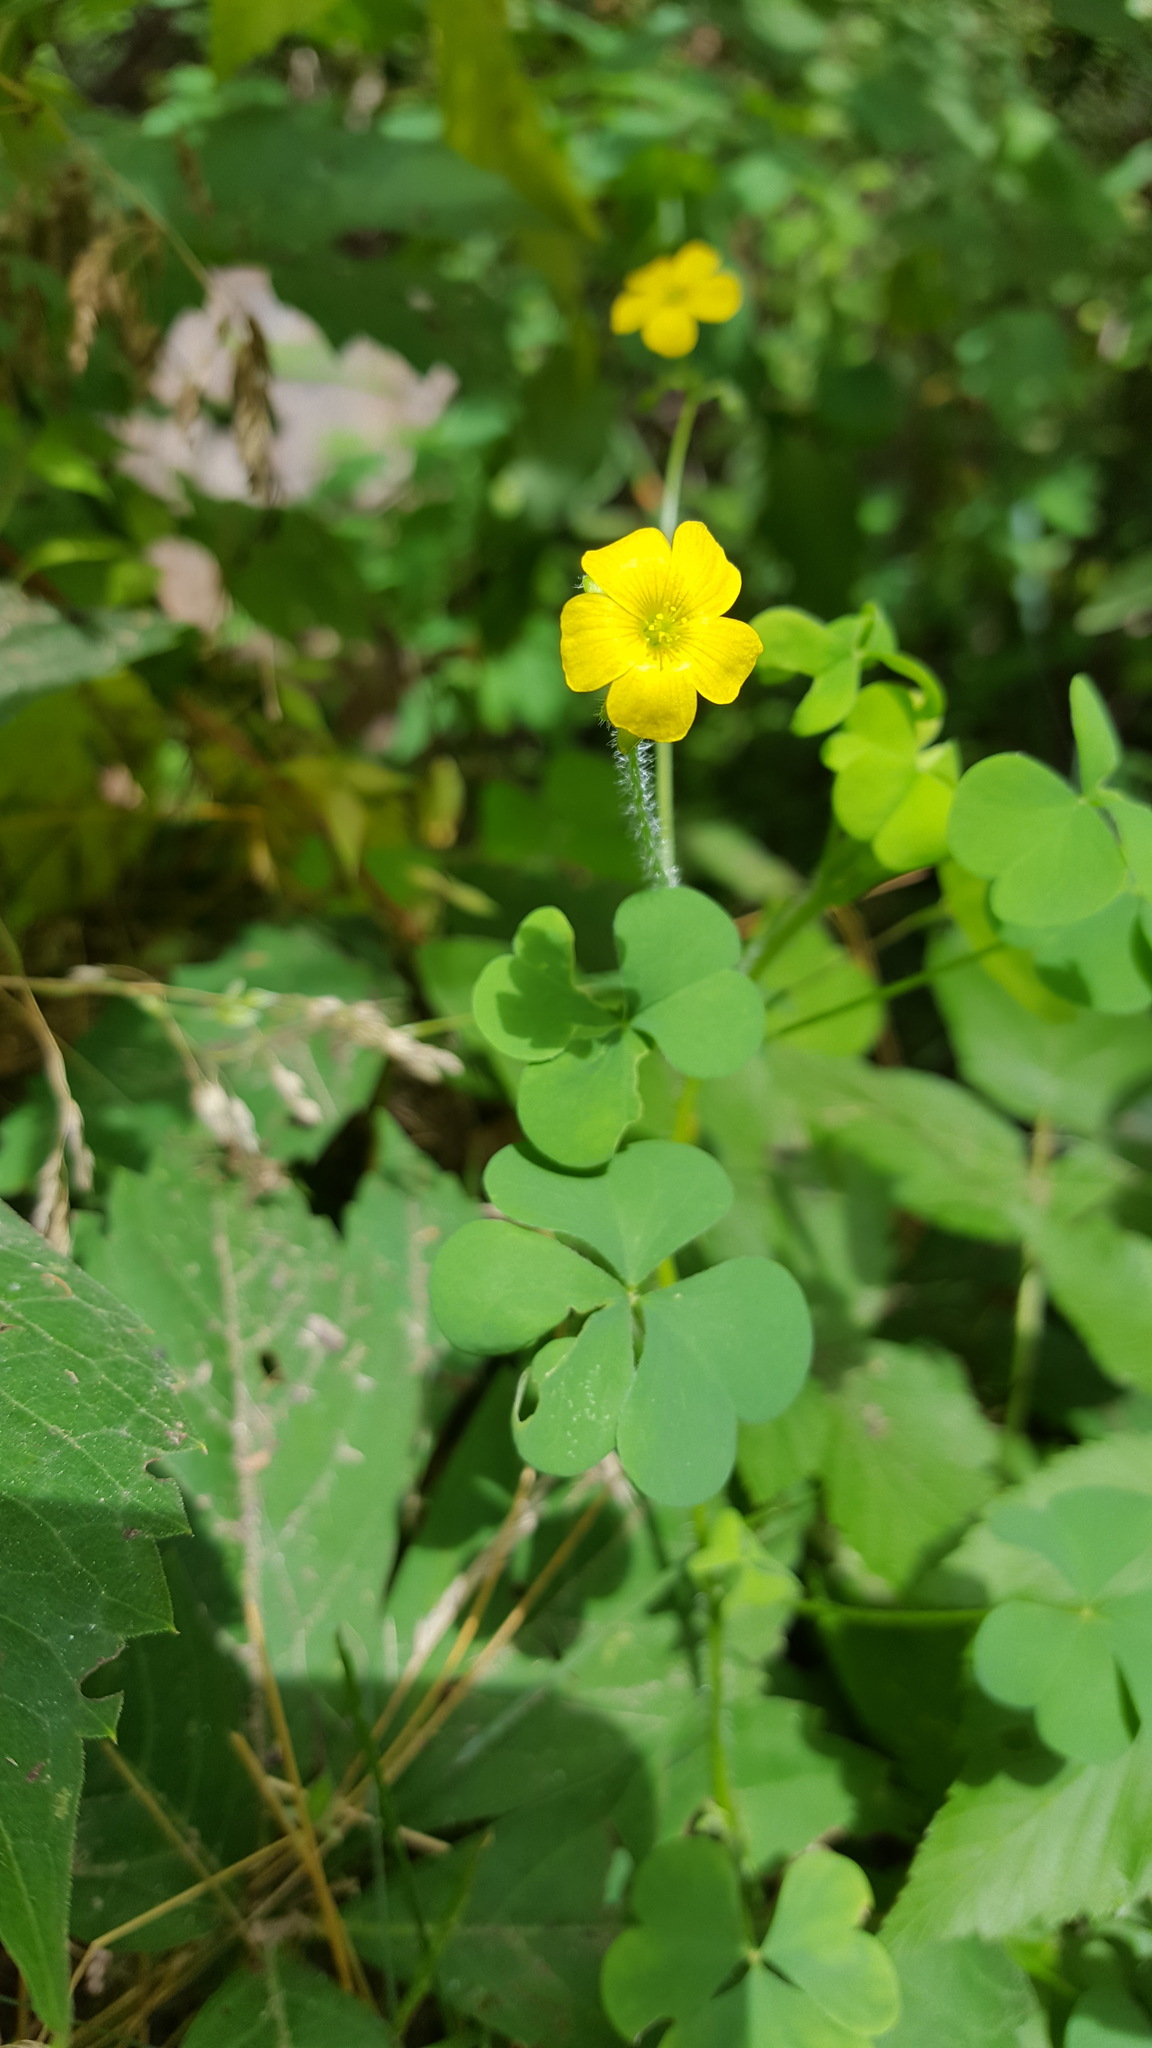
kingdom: Plantae
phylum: Tracheophyta
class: Magnoliopsida
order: Oxalidales
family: Oxalidaceae
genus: Oxalis
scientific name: Oxalis stricta
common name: Upright yellow-sorrel
